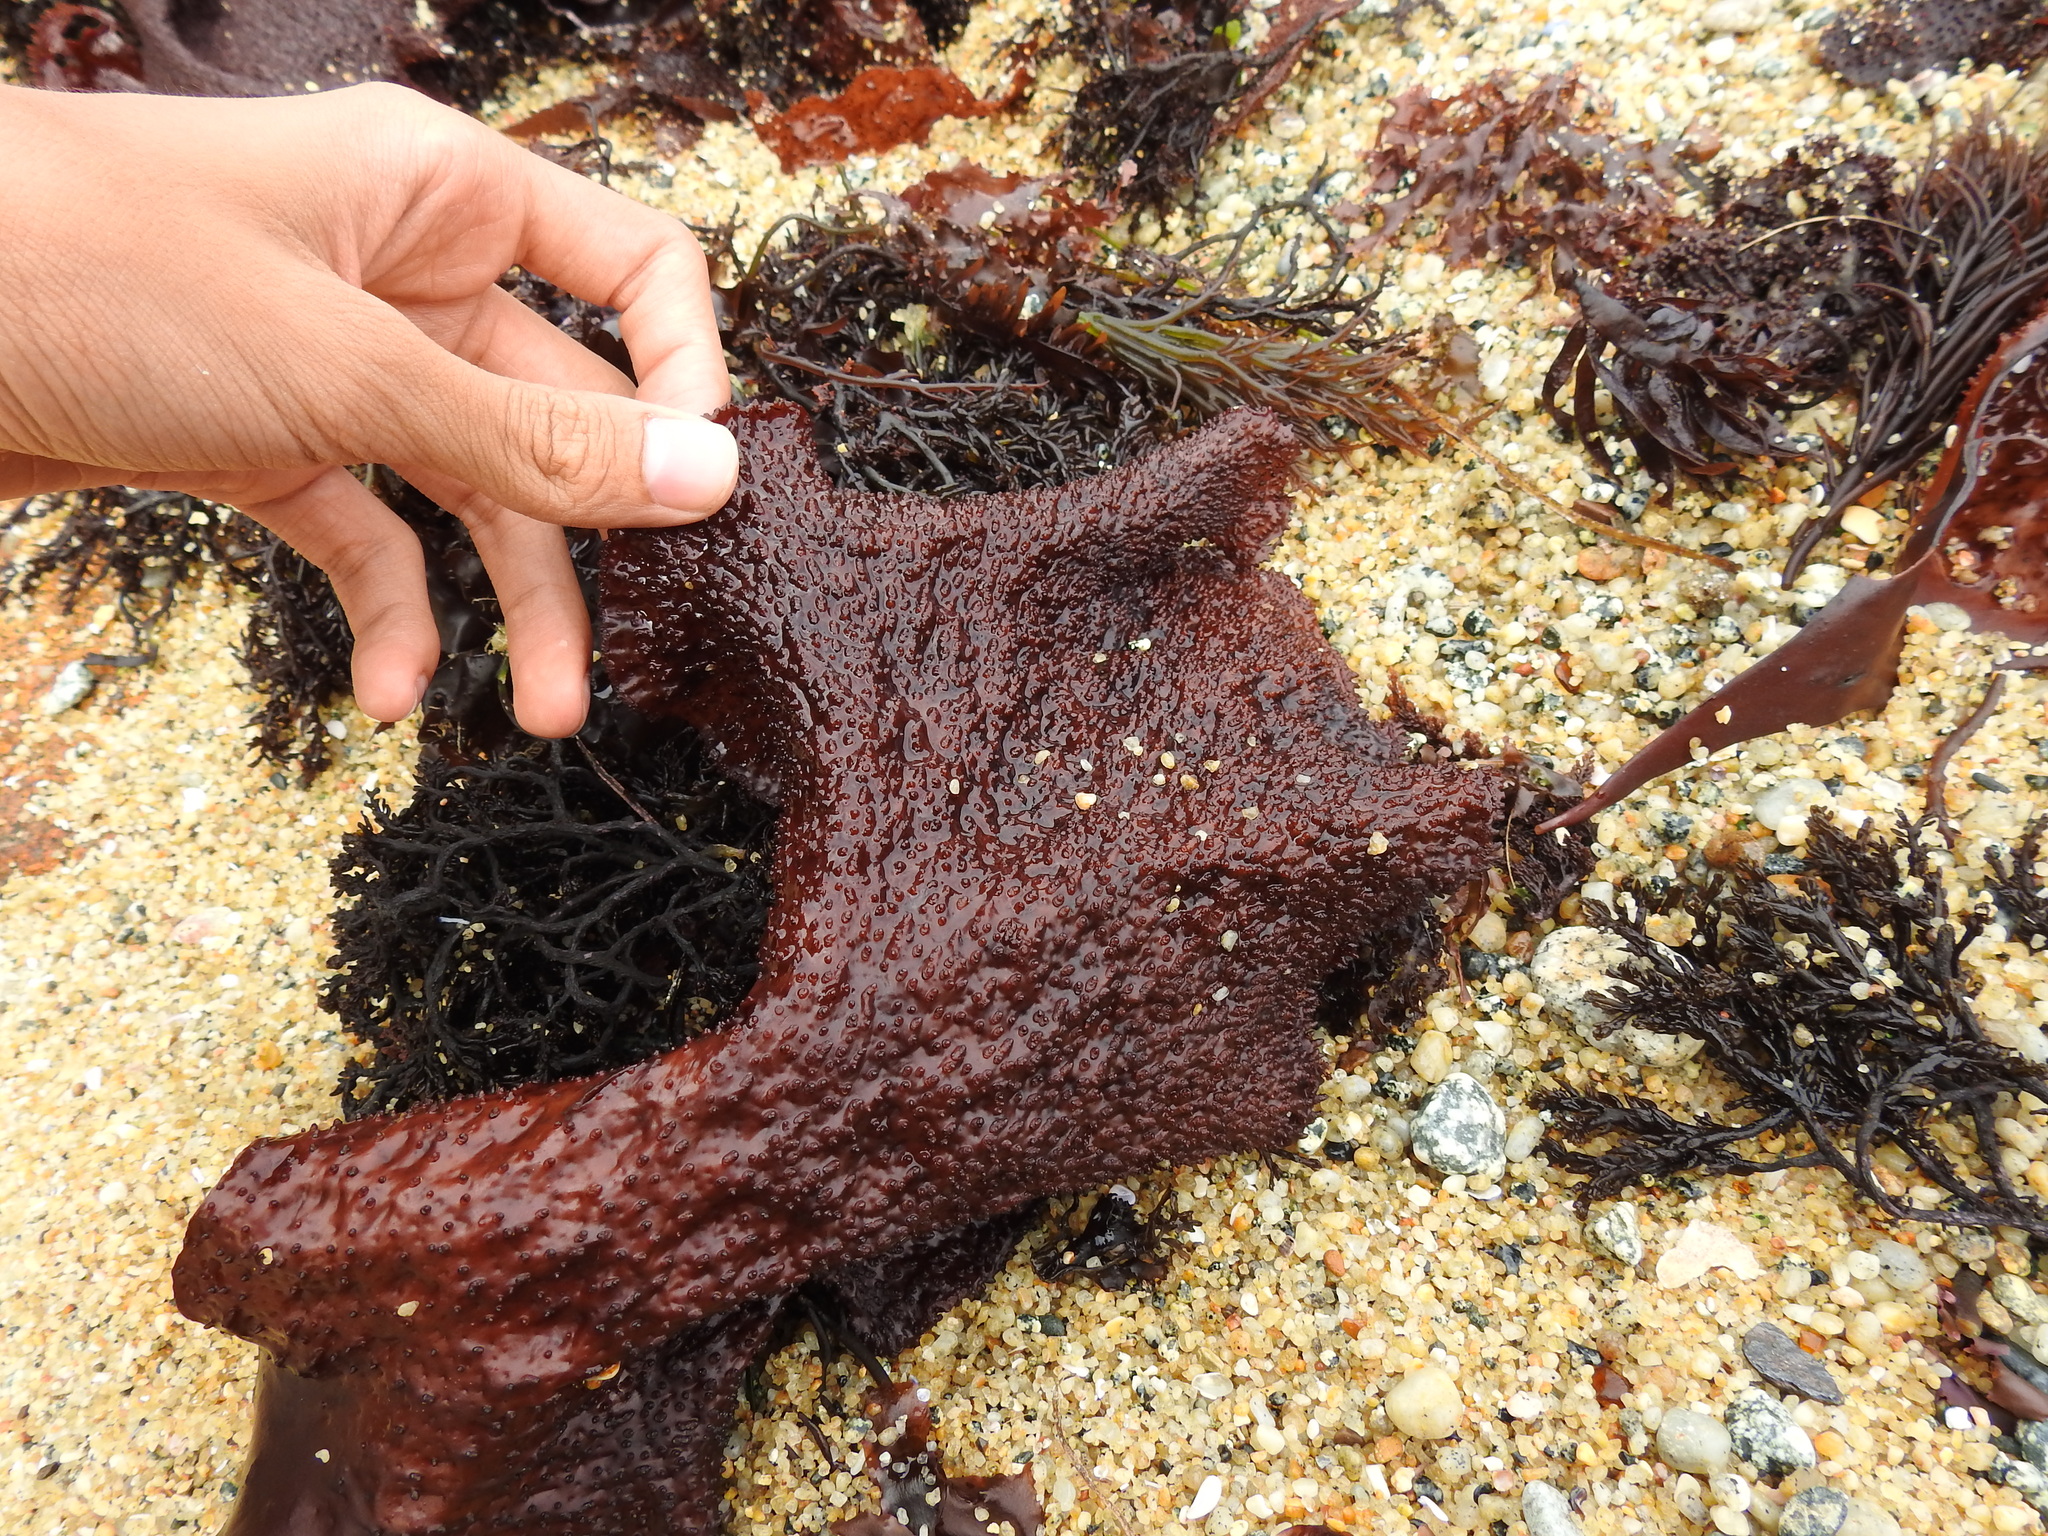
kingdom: Plantae
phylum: Rhodophyta
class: Florideophyceae
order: Gigartinales
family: Gigartinaceae
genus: Chondracanthus
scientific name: Chondracanthus exasperatus
